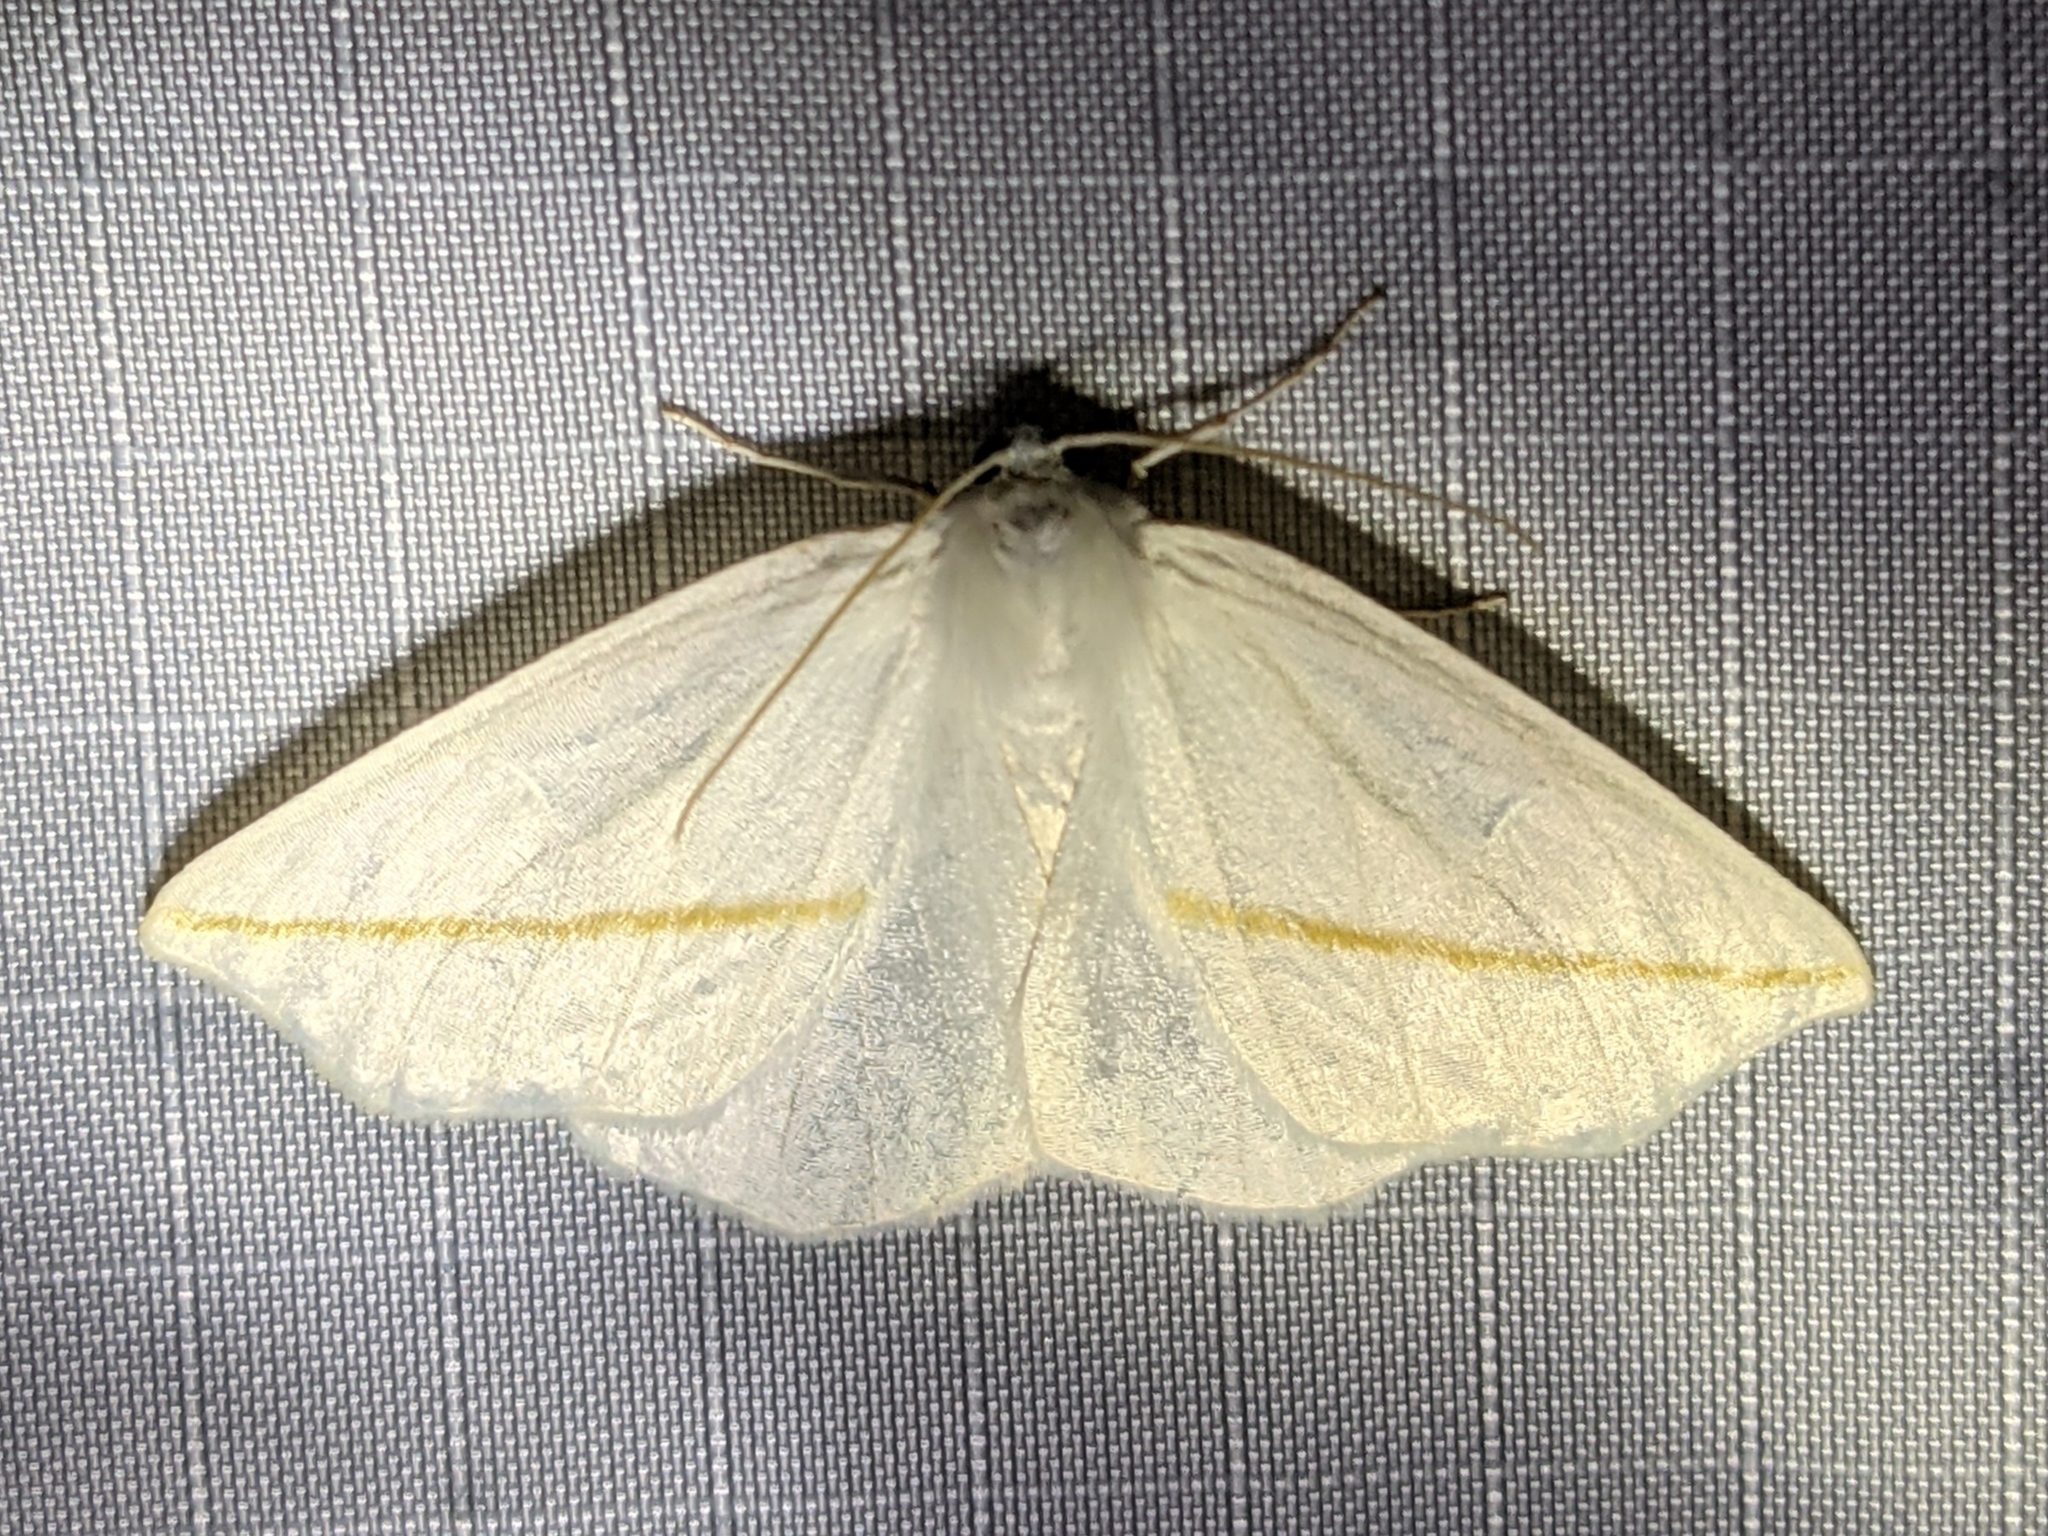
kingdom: Animalia
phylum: Arthropoda
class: Insecta
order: Lepidoptera
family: Geometridae
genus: Tetracis
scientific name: Tetracis cachexiata
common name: White slant-line
